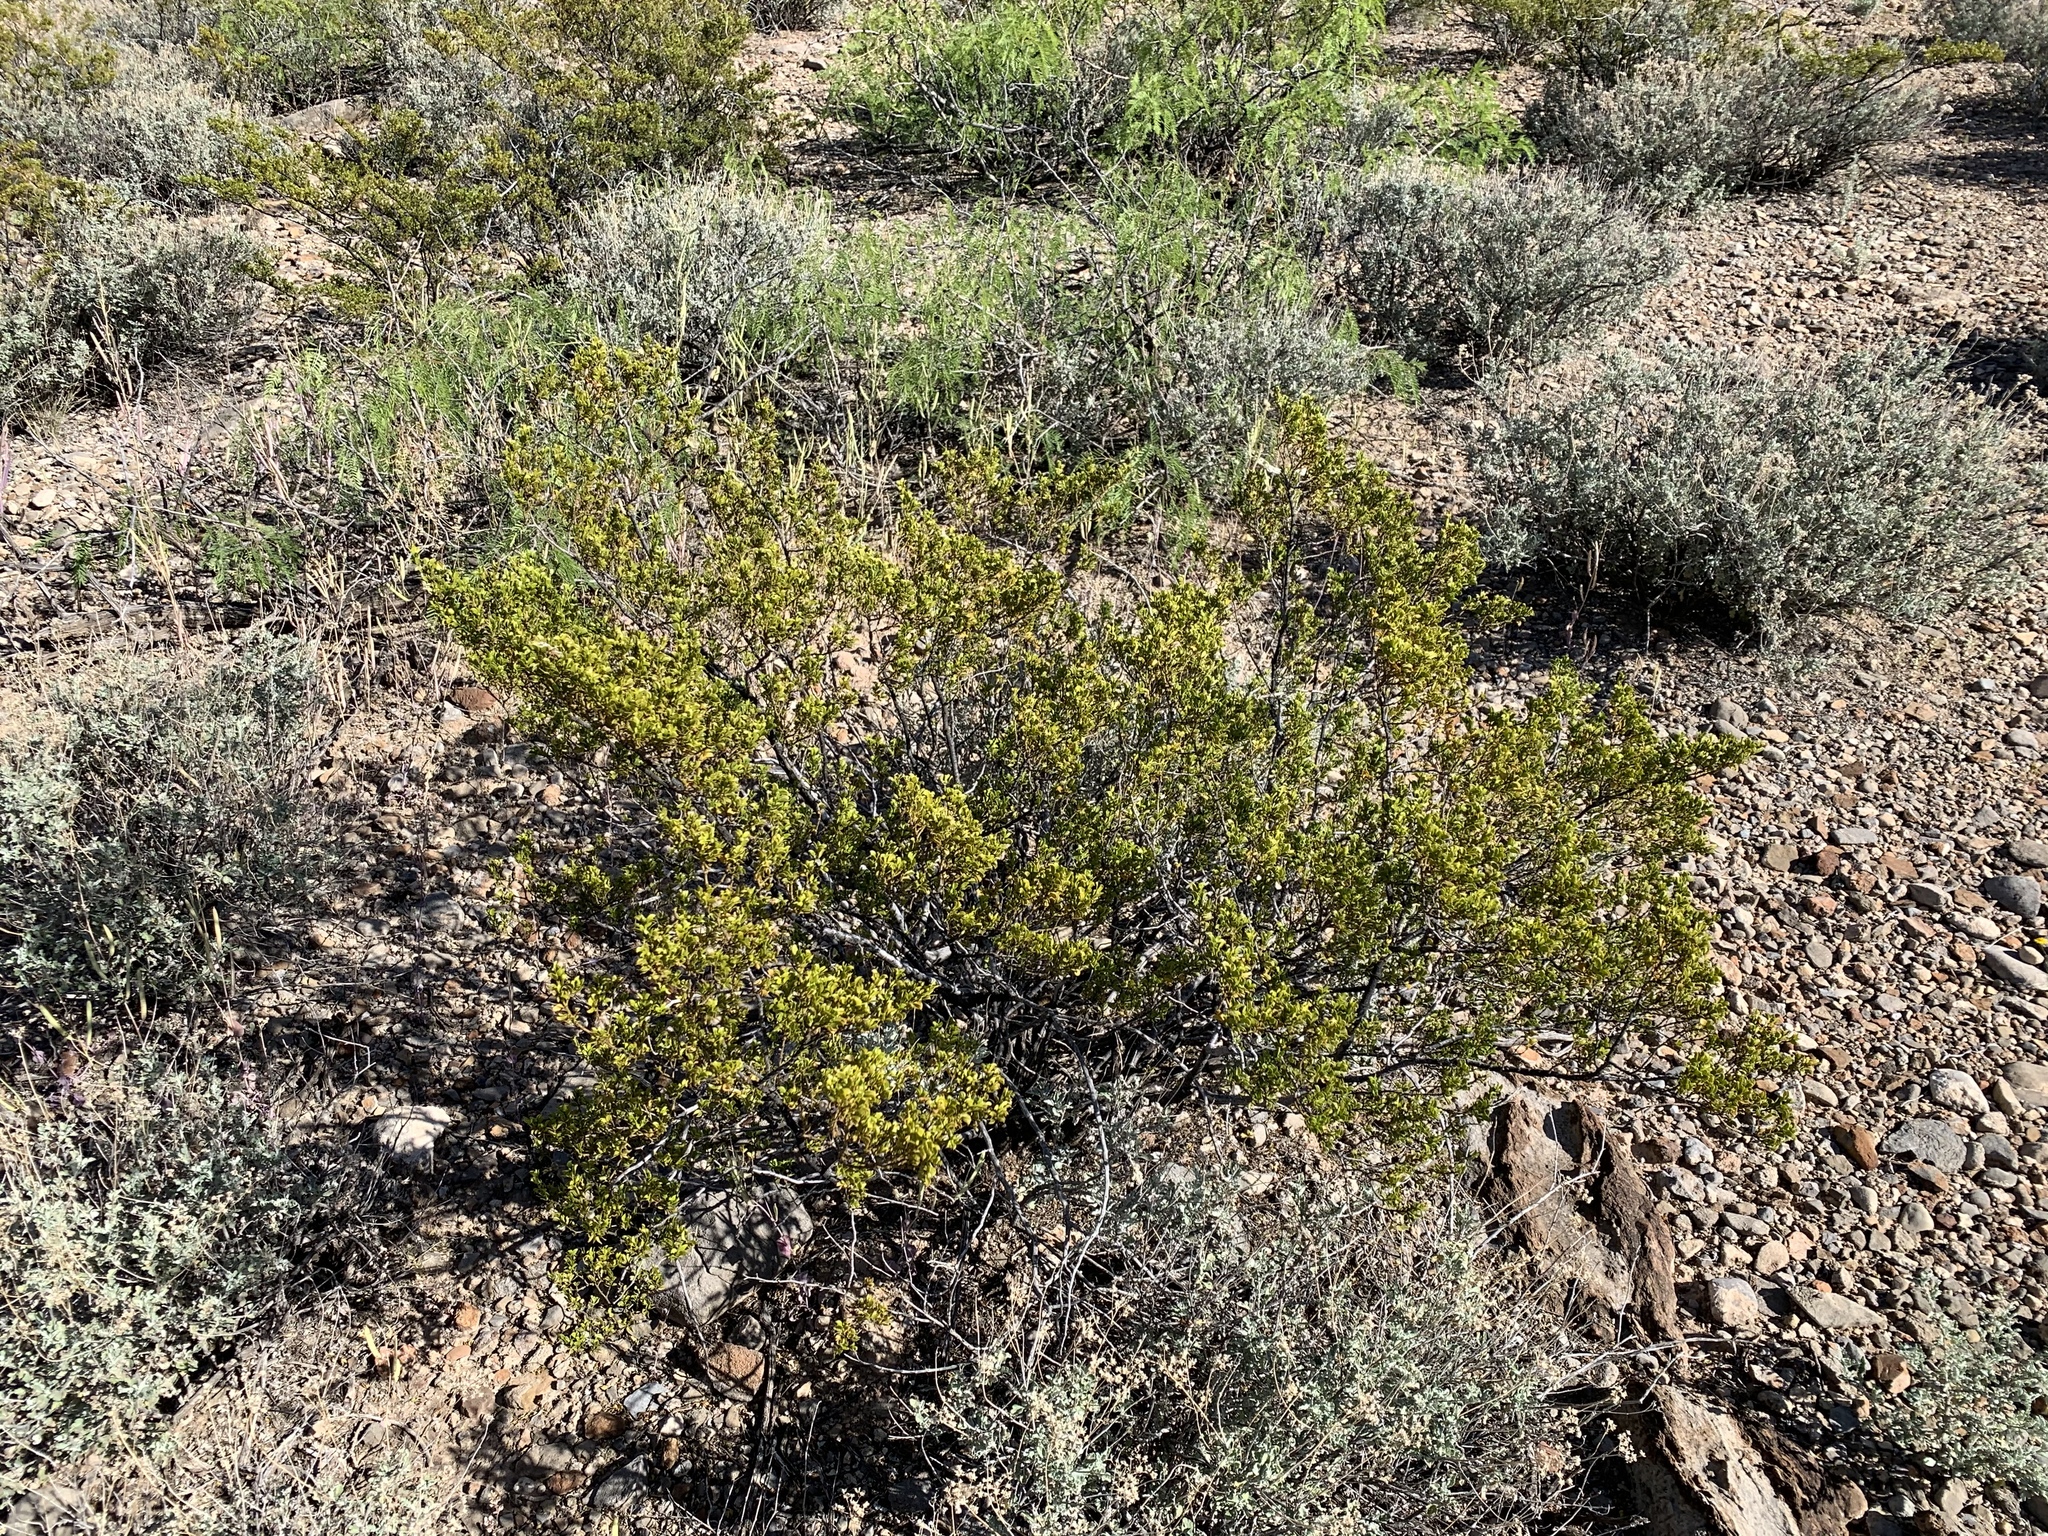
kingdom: Plantae
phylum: Tracheophyta
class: Magnoliopsida
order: Zygophyllales
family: Zygophyllaceae
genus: Larrea
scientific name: Larrea tridentata
